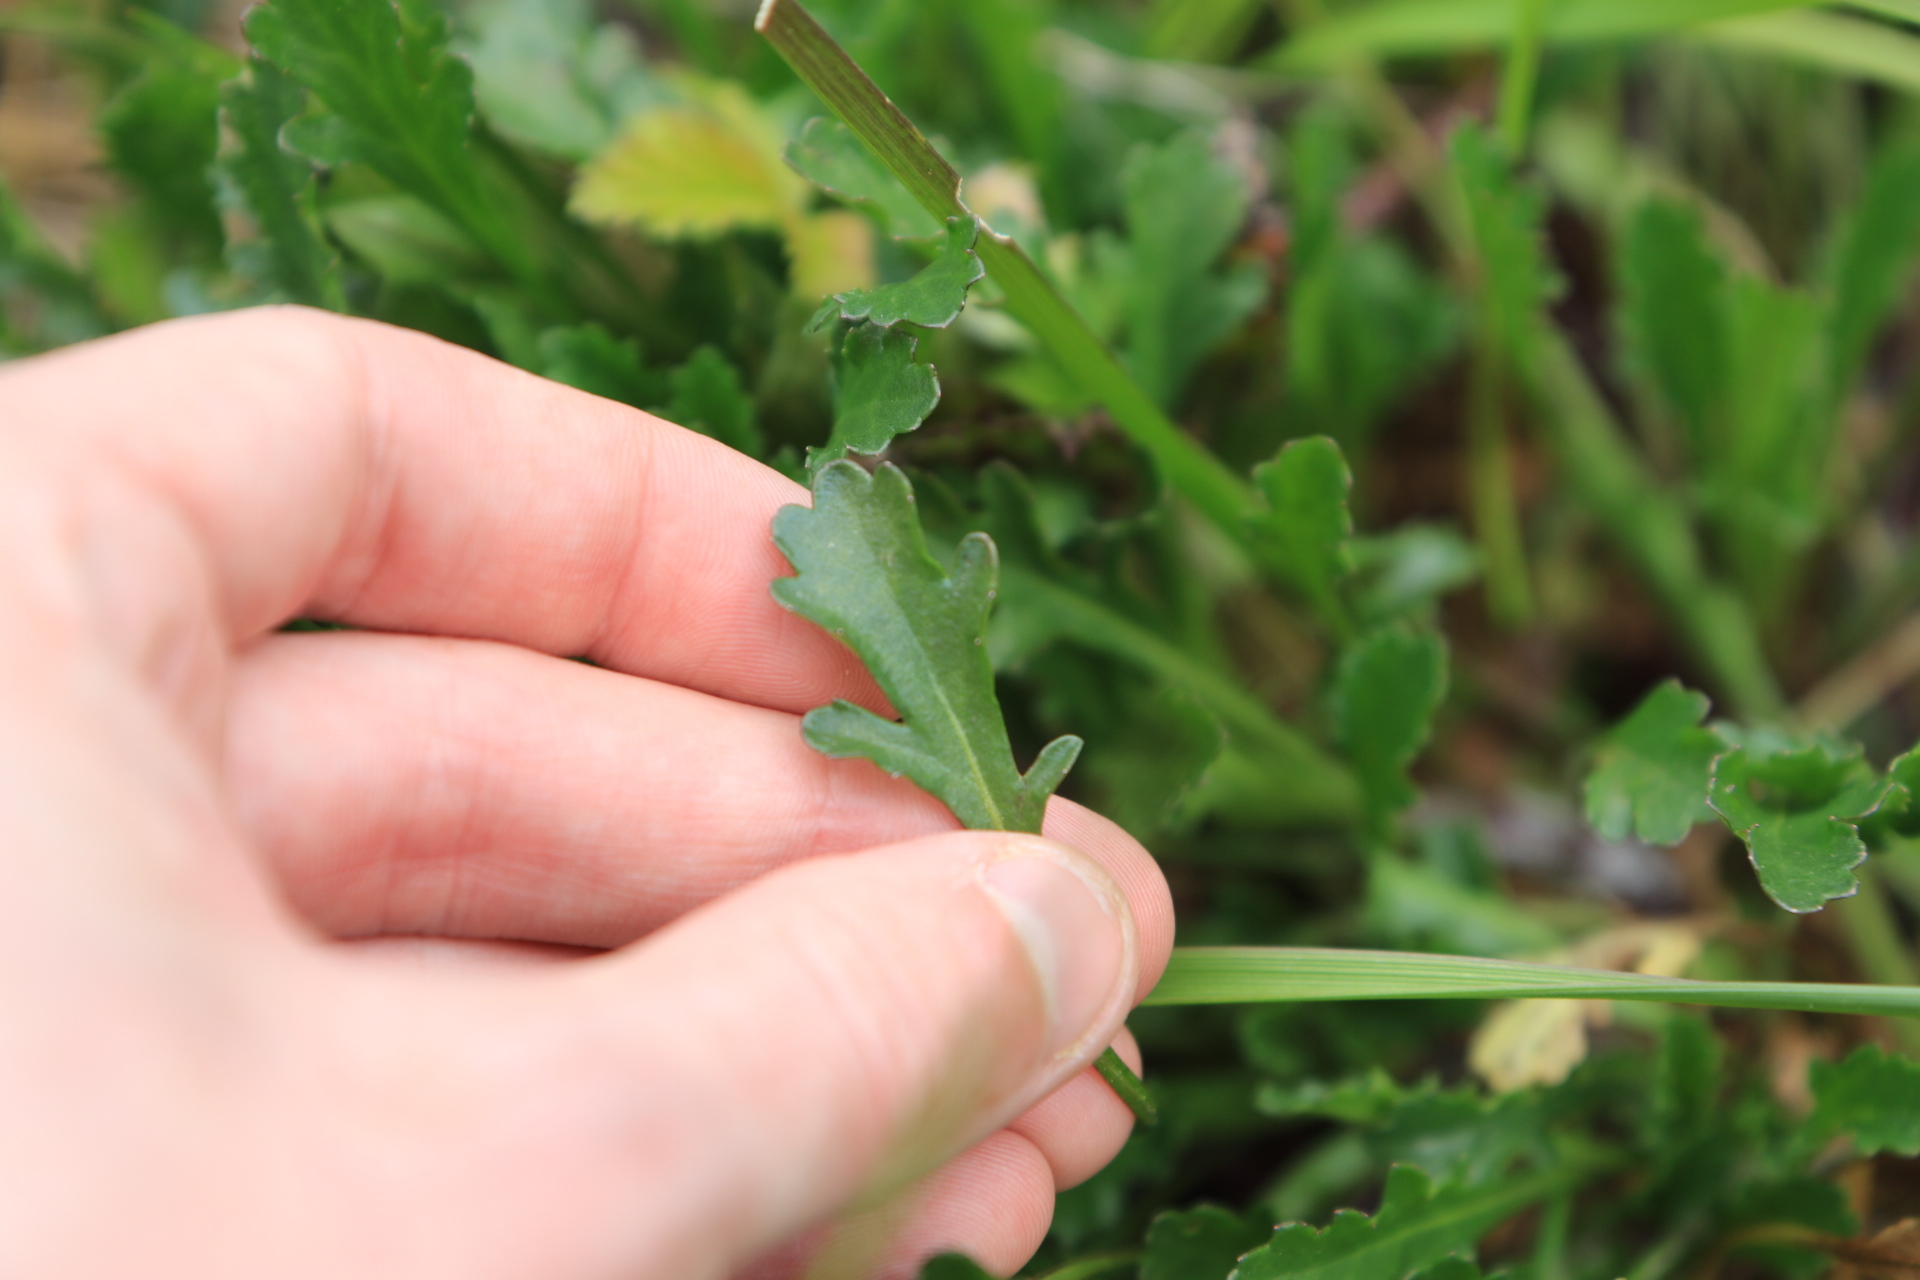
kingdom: Plantae
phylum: Tracheophyta
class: Magnoliopsida
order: Asterales
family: Asteraceae
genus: Leucanthemum
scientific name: Leucanthemum vulgare
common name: Oxeye daisy
